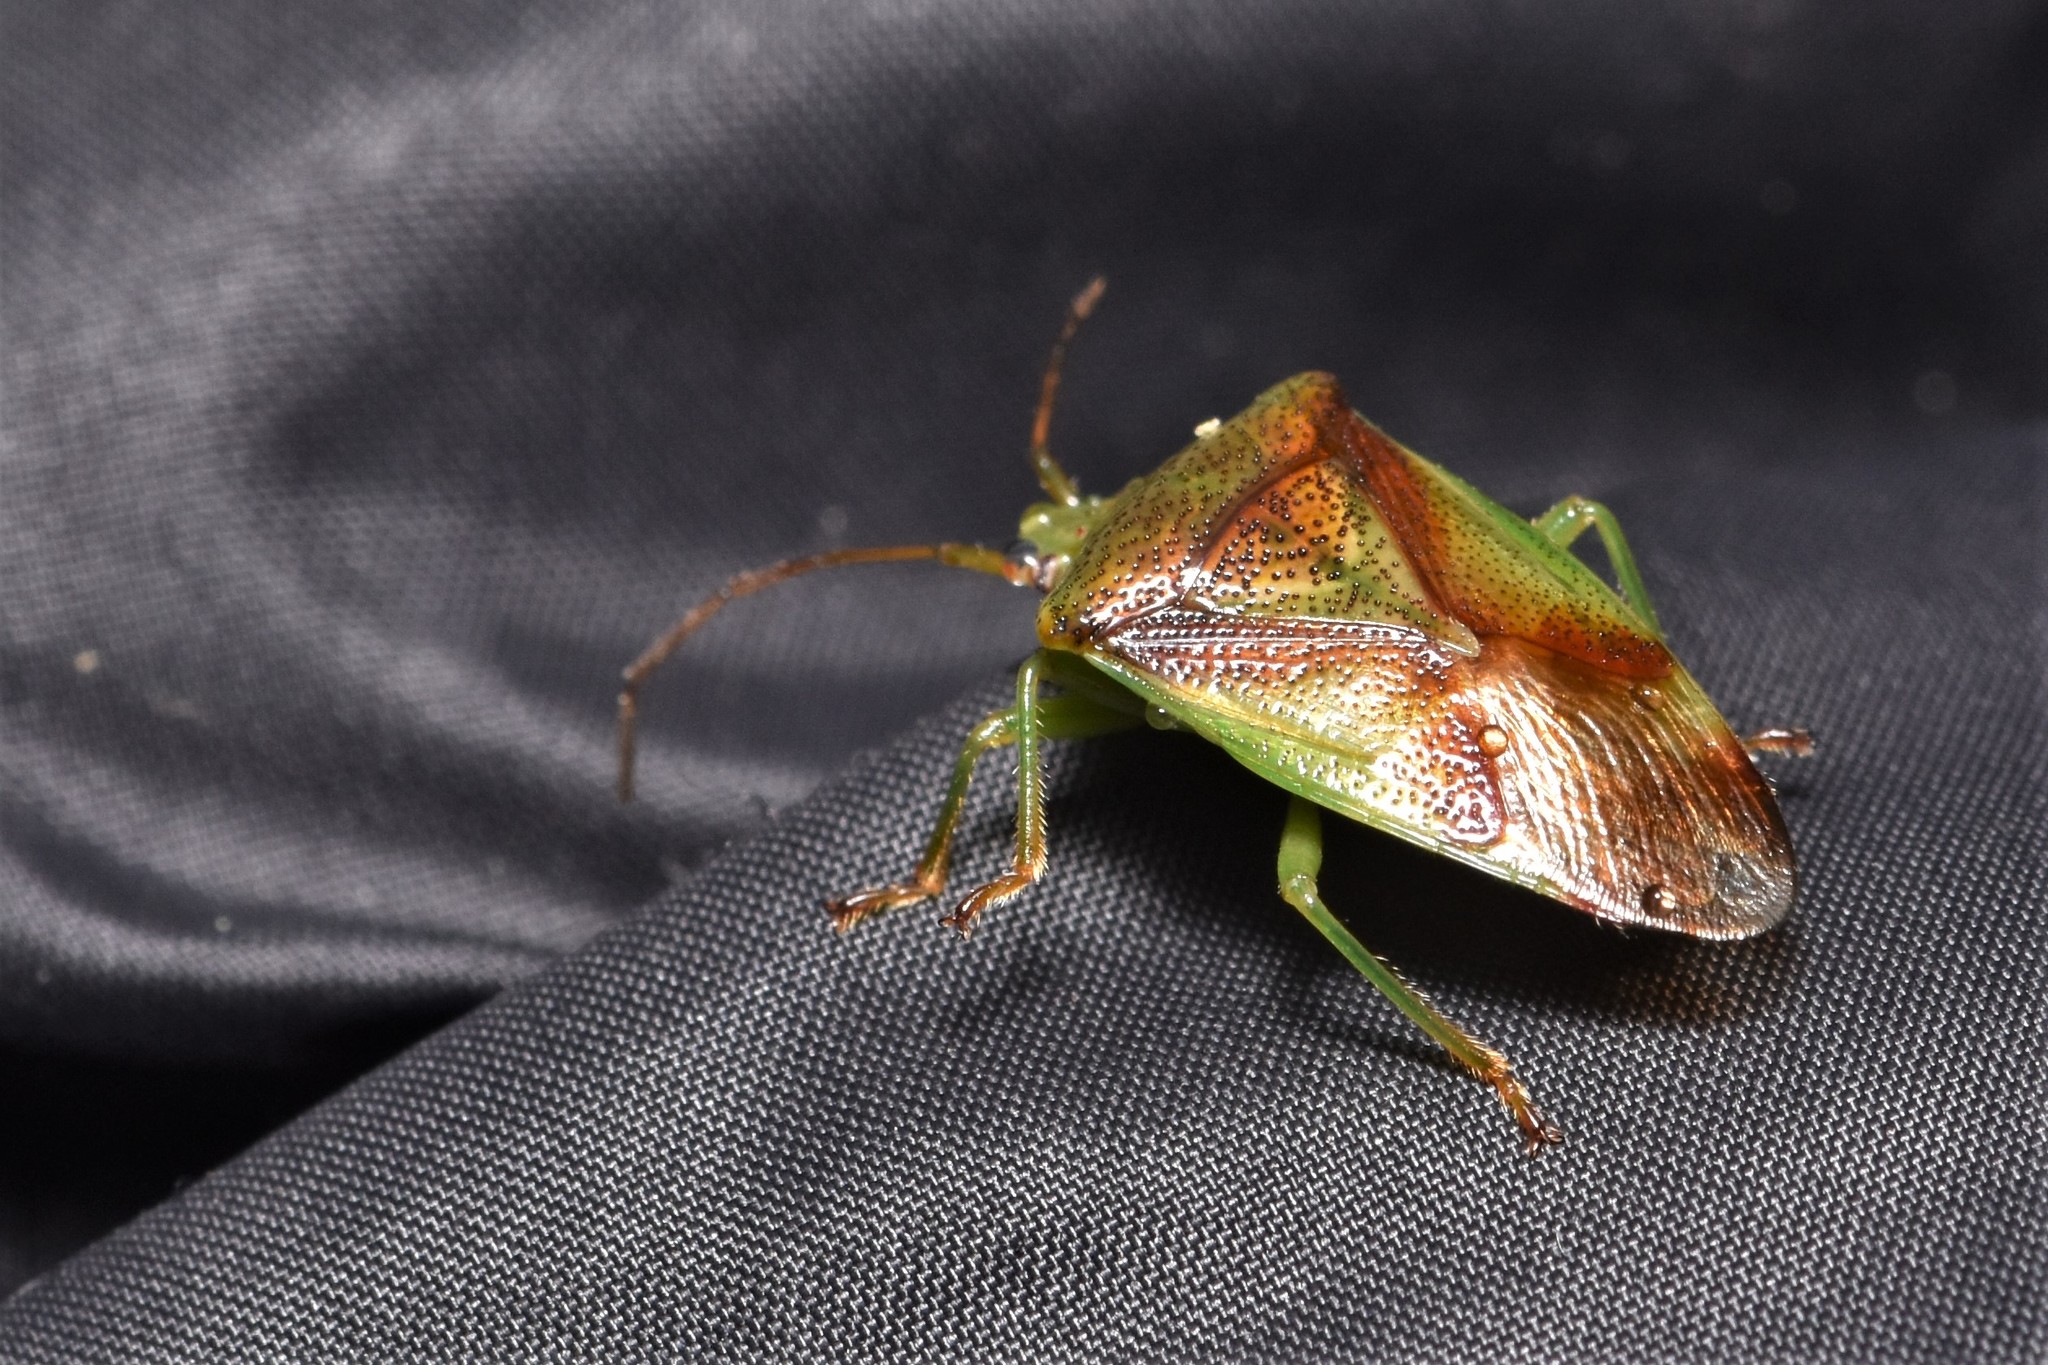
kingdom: Animalia
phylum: Arthropoda
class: Insecta
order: Hemiptera
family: Acanthosomatidae
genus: Elasmostethus
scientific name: Elasmostethus cruciatus
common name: Red-cross shield bug
